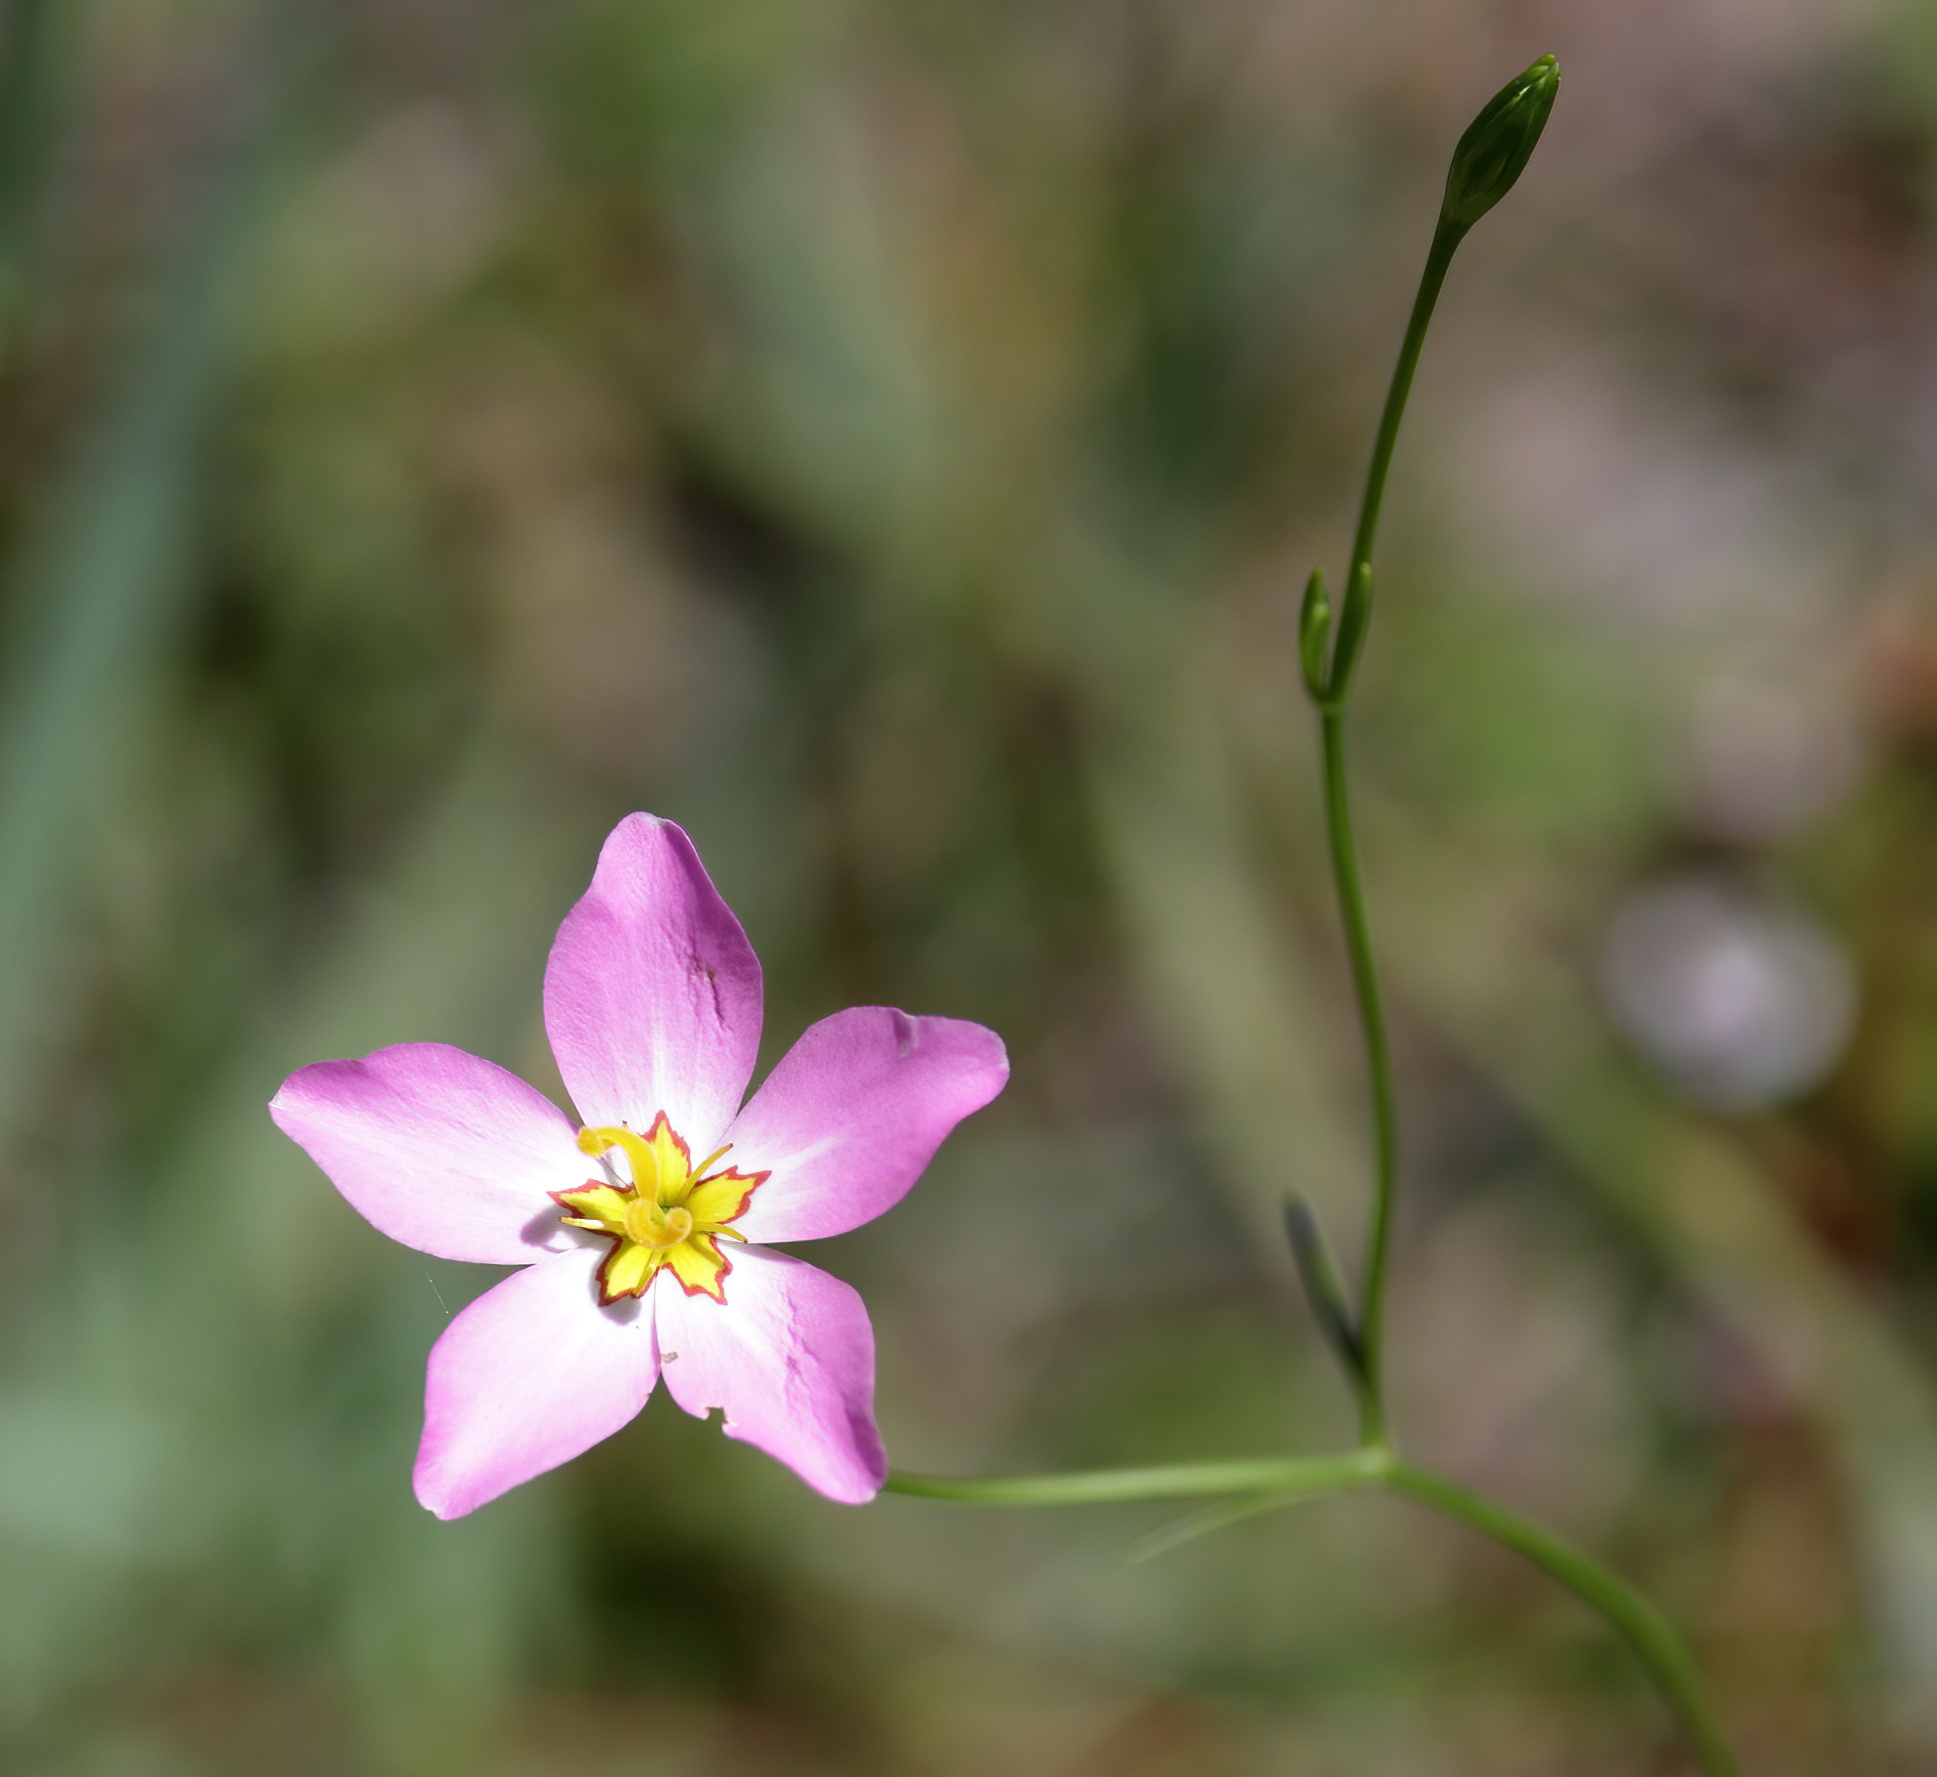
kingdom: Plantae
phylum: Tracheophyta
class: Magnoliopsida
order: Gentianales
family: Gentianaceae
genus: Sabatia
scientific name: Sabatia stellaris
